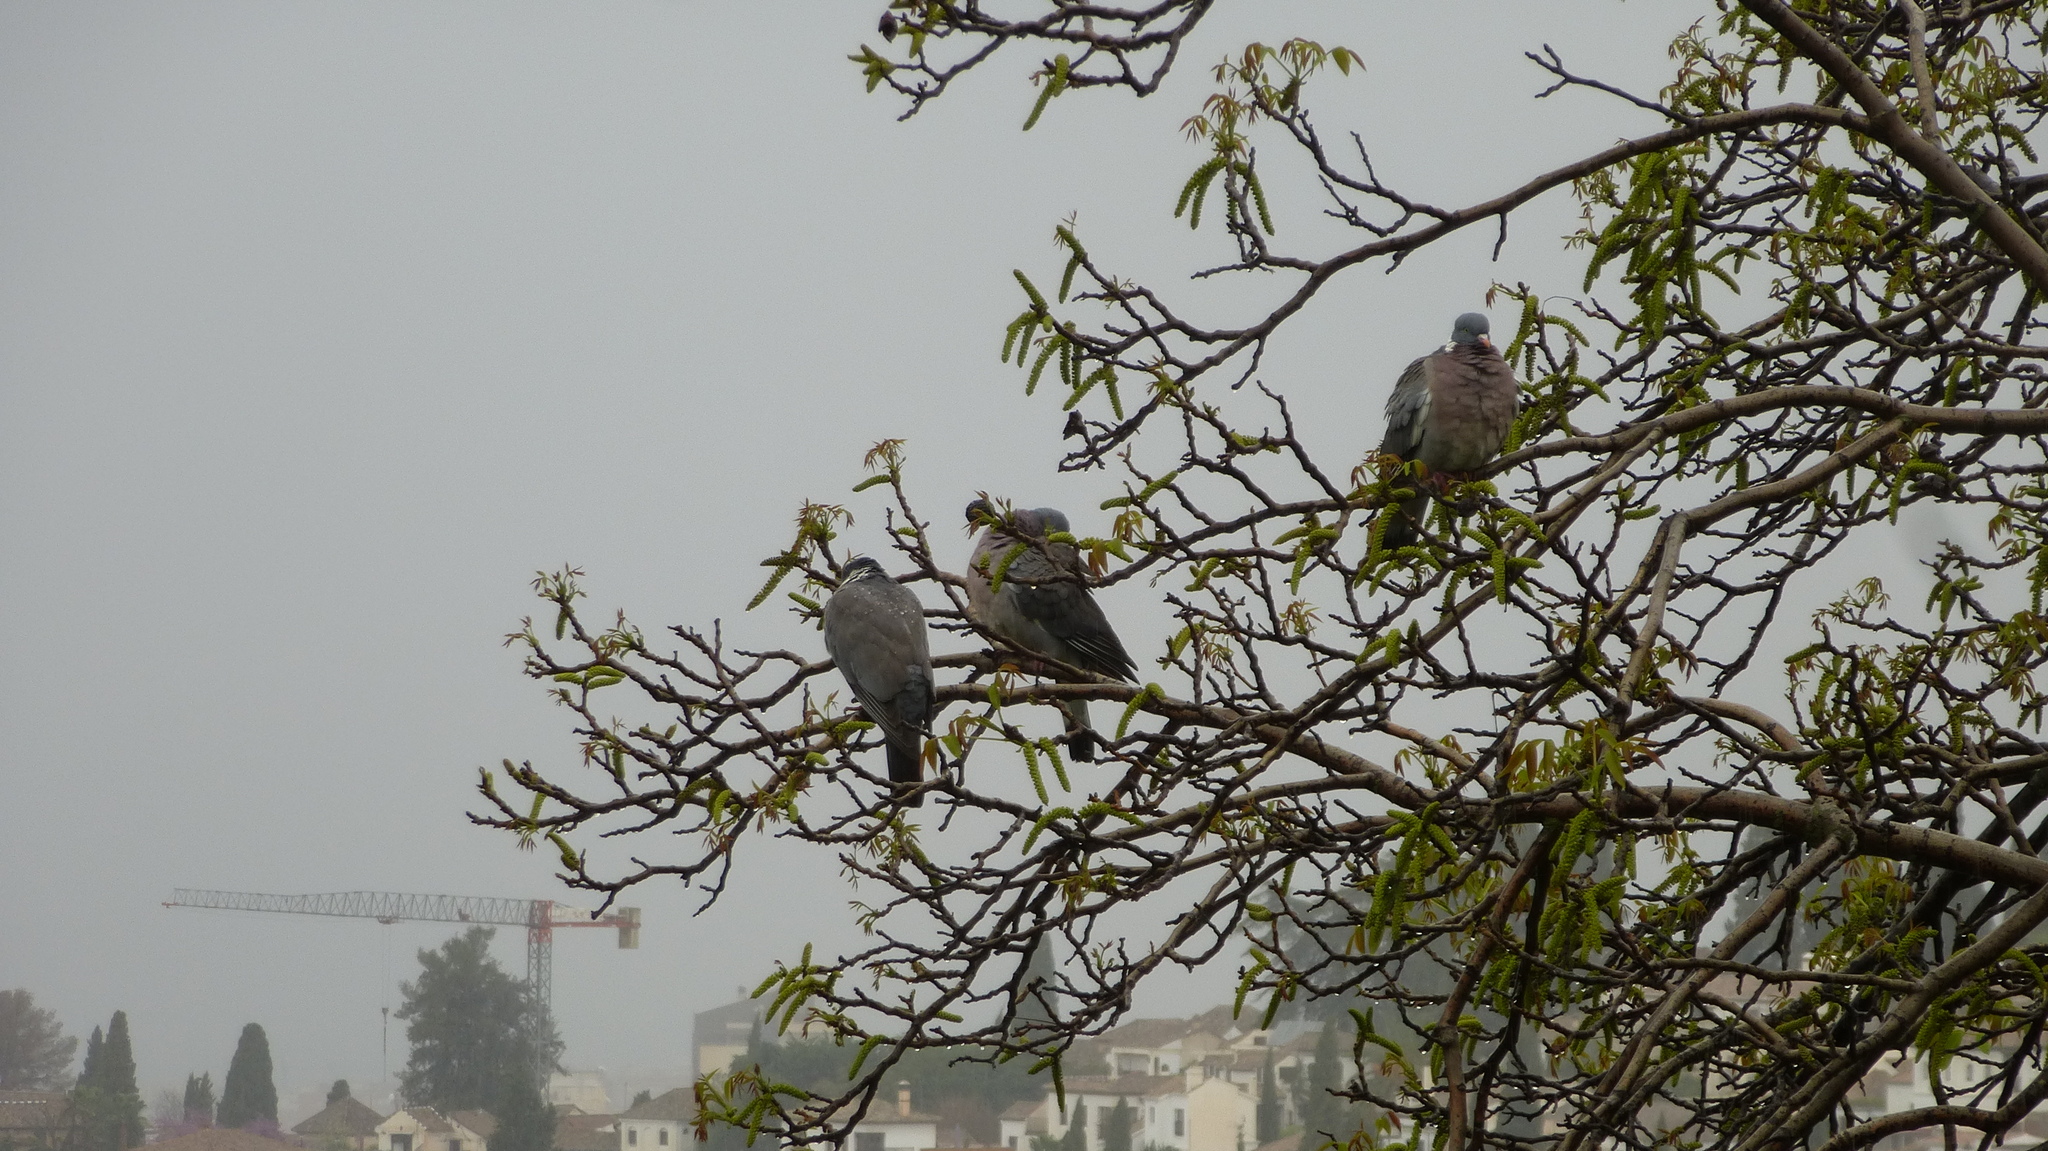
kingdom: Animalia
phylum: Chordata
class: Aves
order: Columbiformes
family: Columbidae
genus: Columba
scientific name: Columba palumbus
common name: Common wood pigeon
